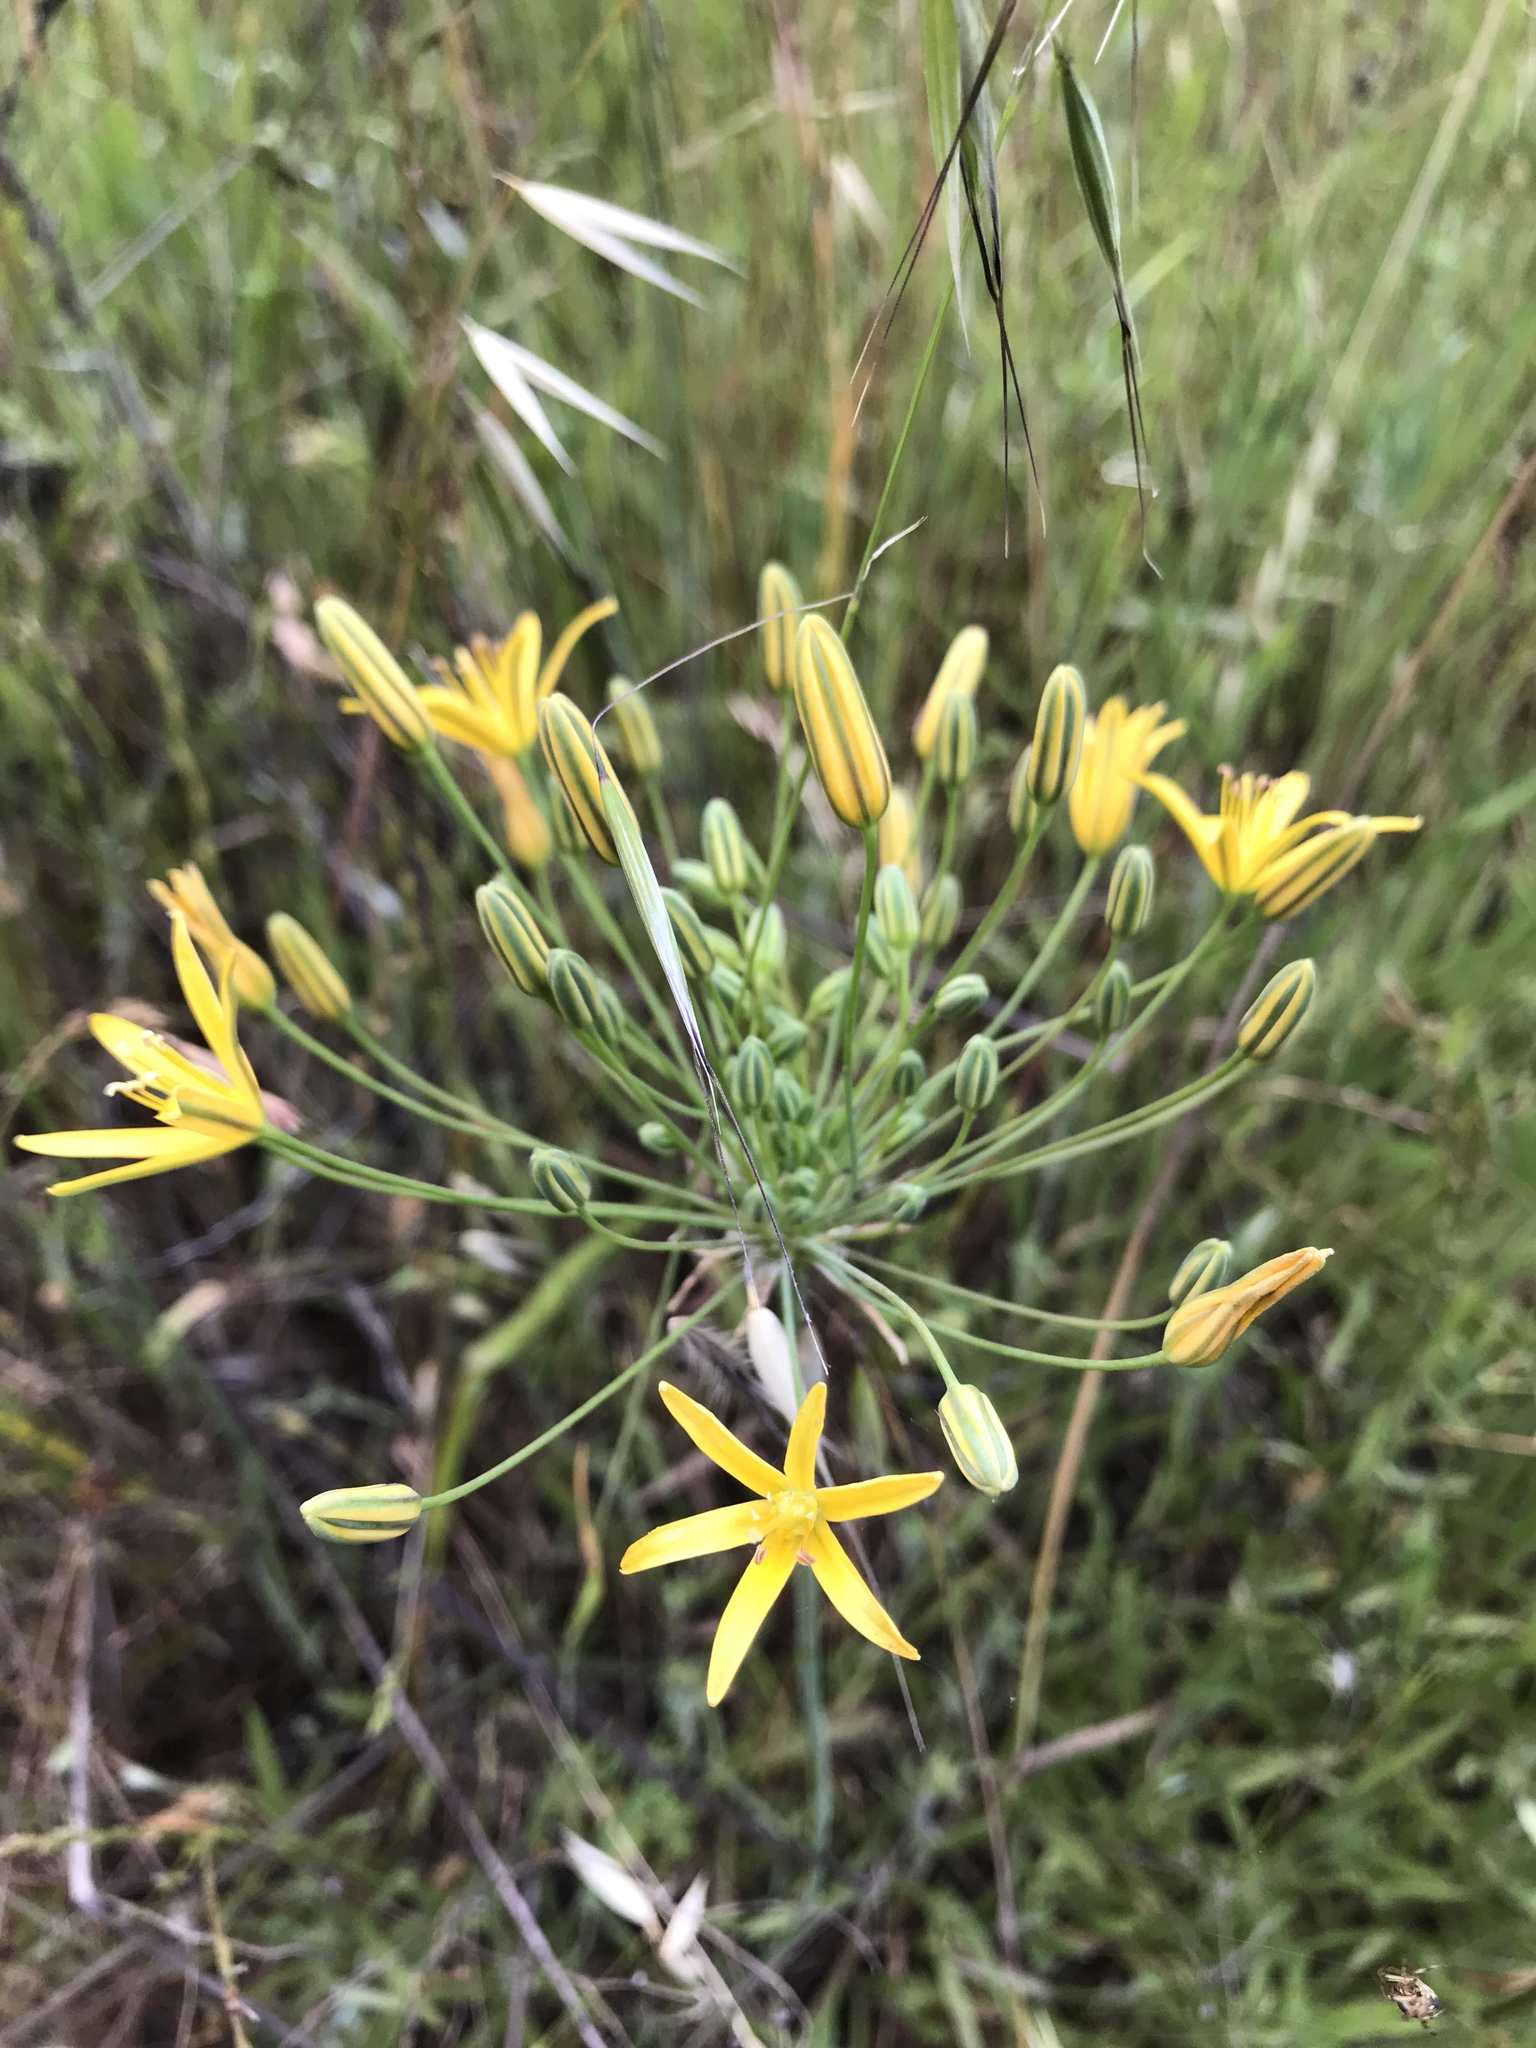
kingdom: Plantae
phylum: Tracheophyta
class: Liliopsida
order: Asparagales
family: Asparagaceae
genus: Bloomeria
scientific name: Bloomeria crocea
